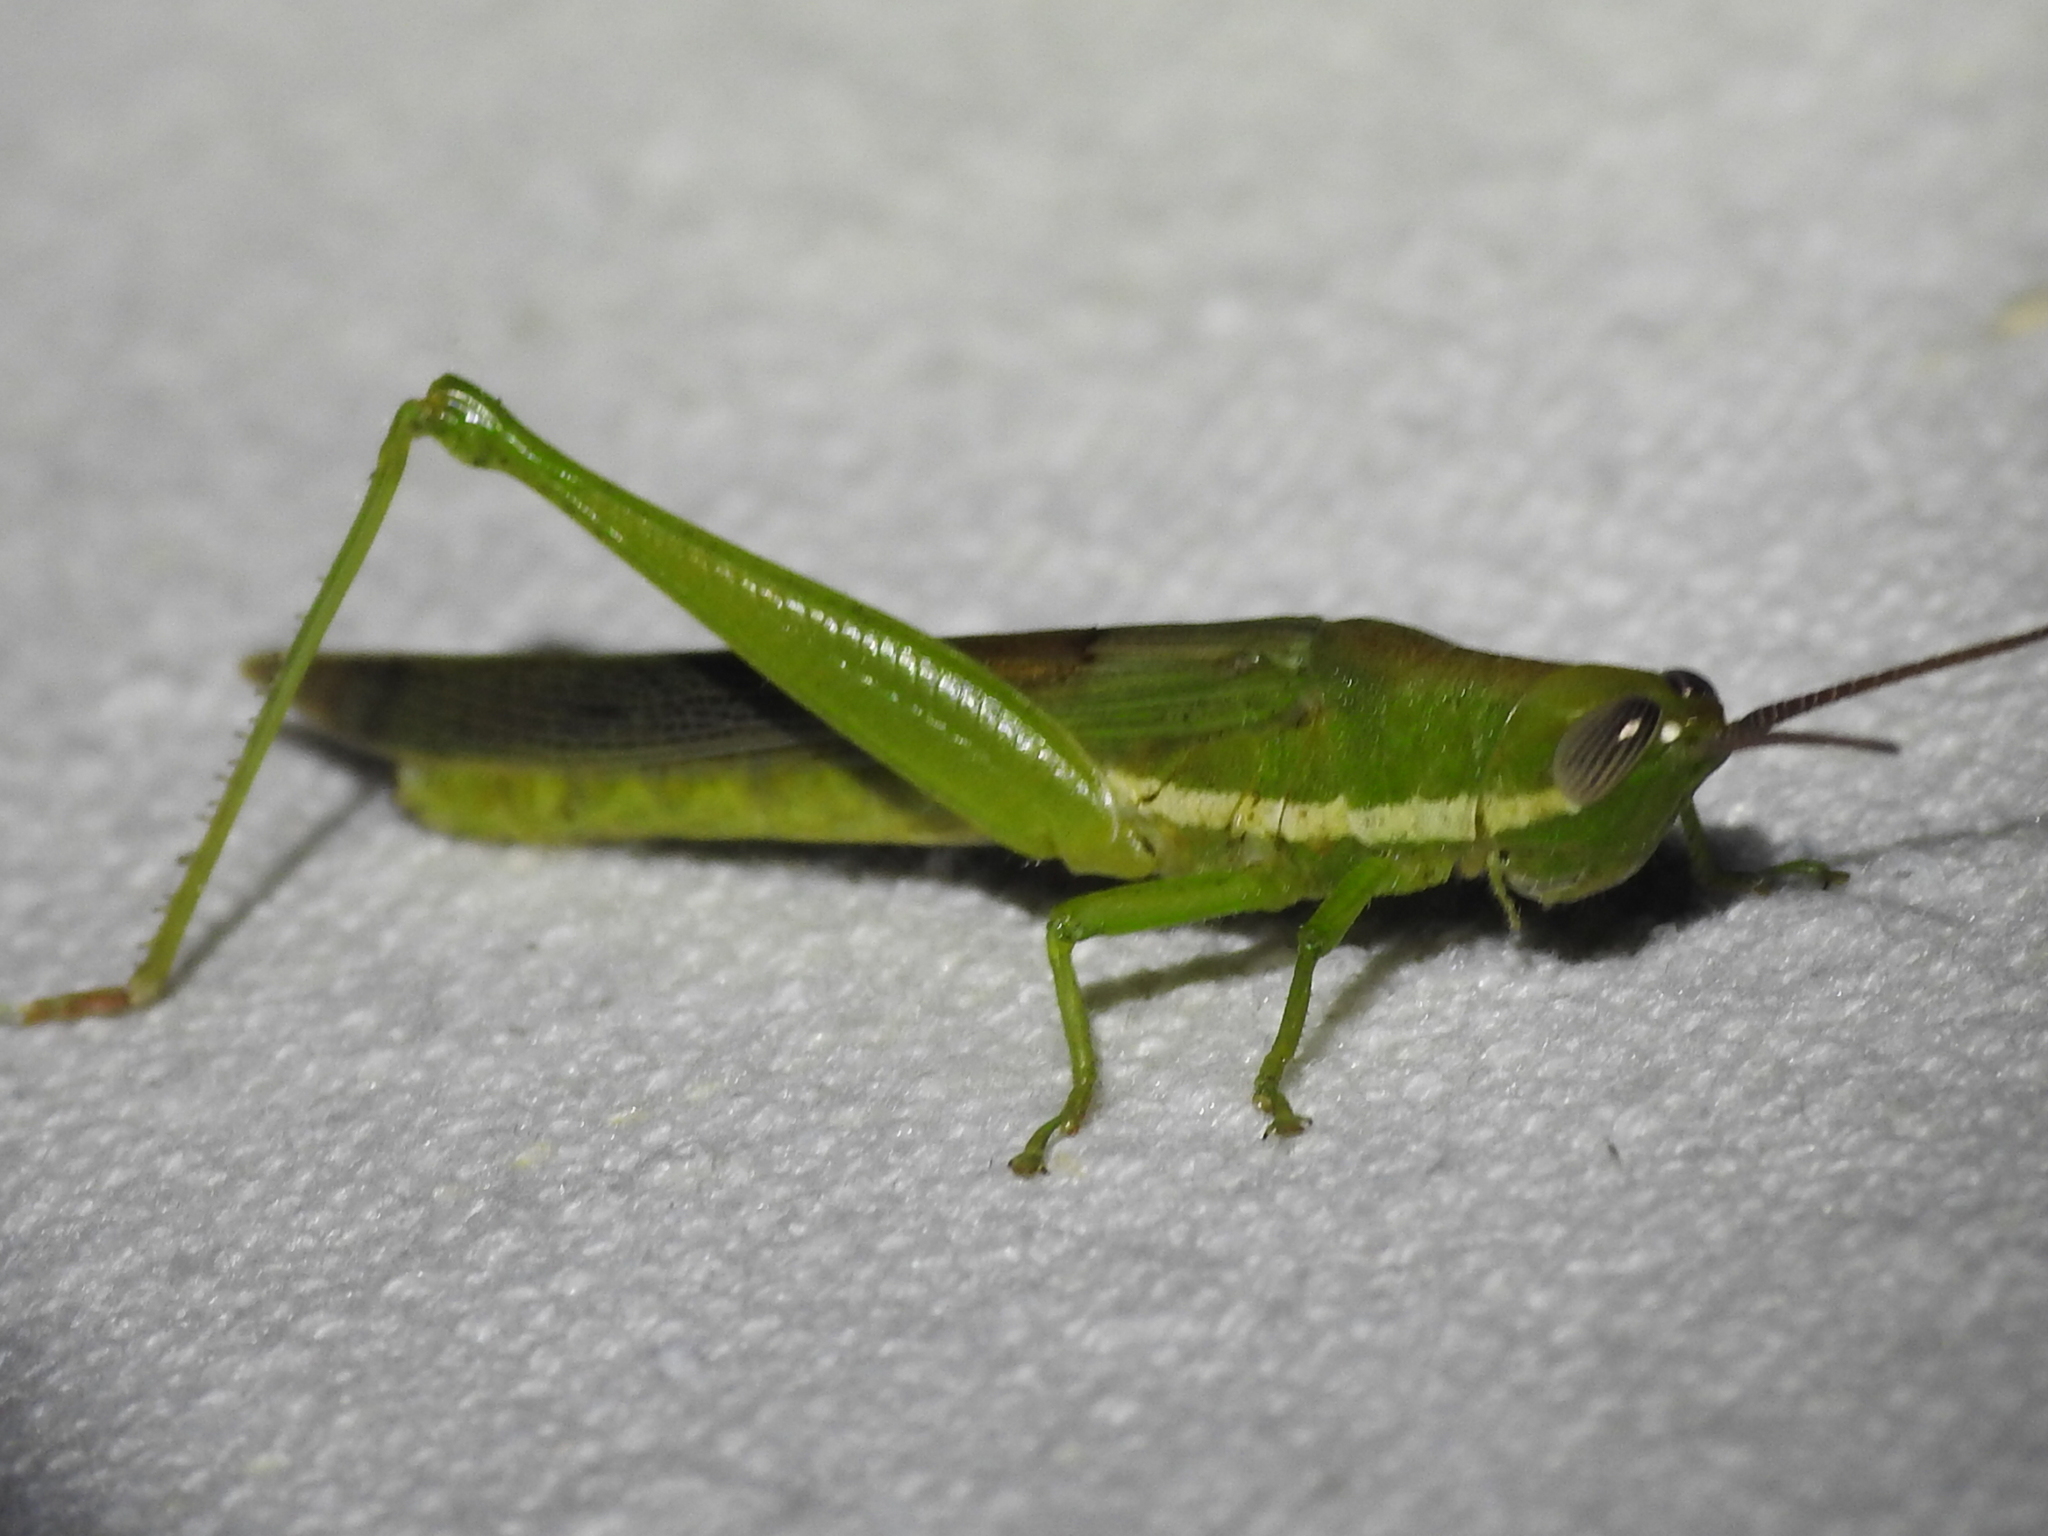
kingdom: Animalia
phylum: Arthropoda
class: Insecta
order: Orthoptera
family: Acrididae
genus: Stenacris
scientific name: Stenacris vitreipennis
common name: Glassy-winged toothpick grasshopper
